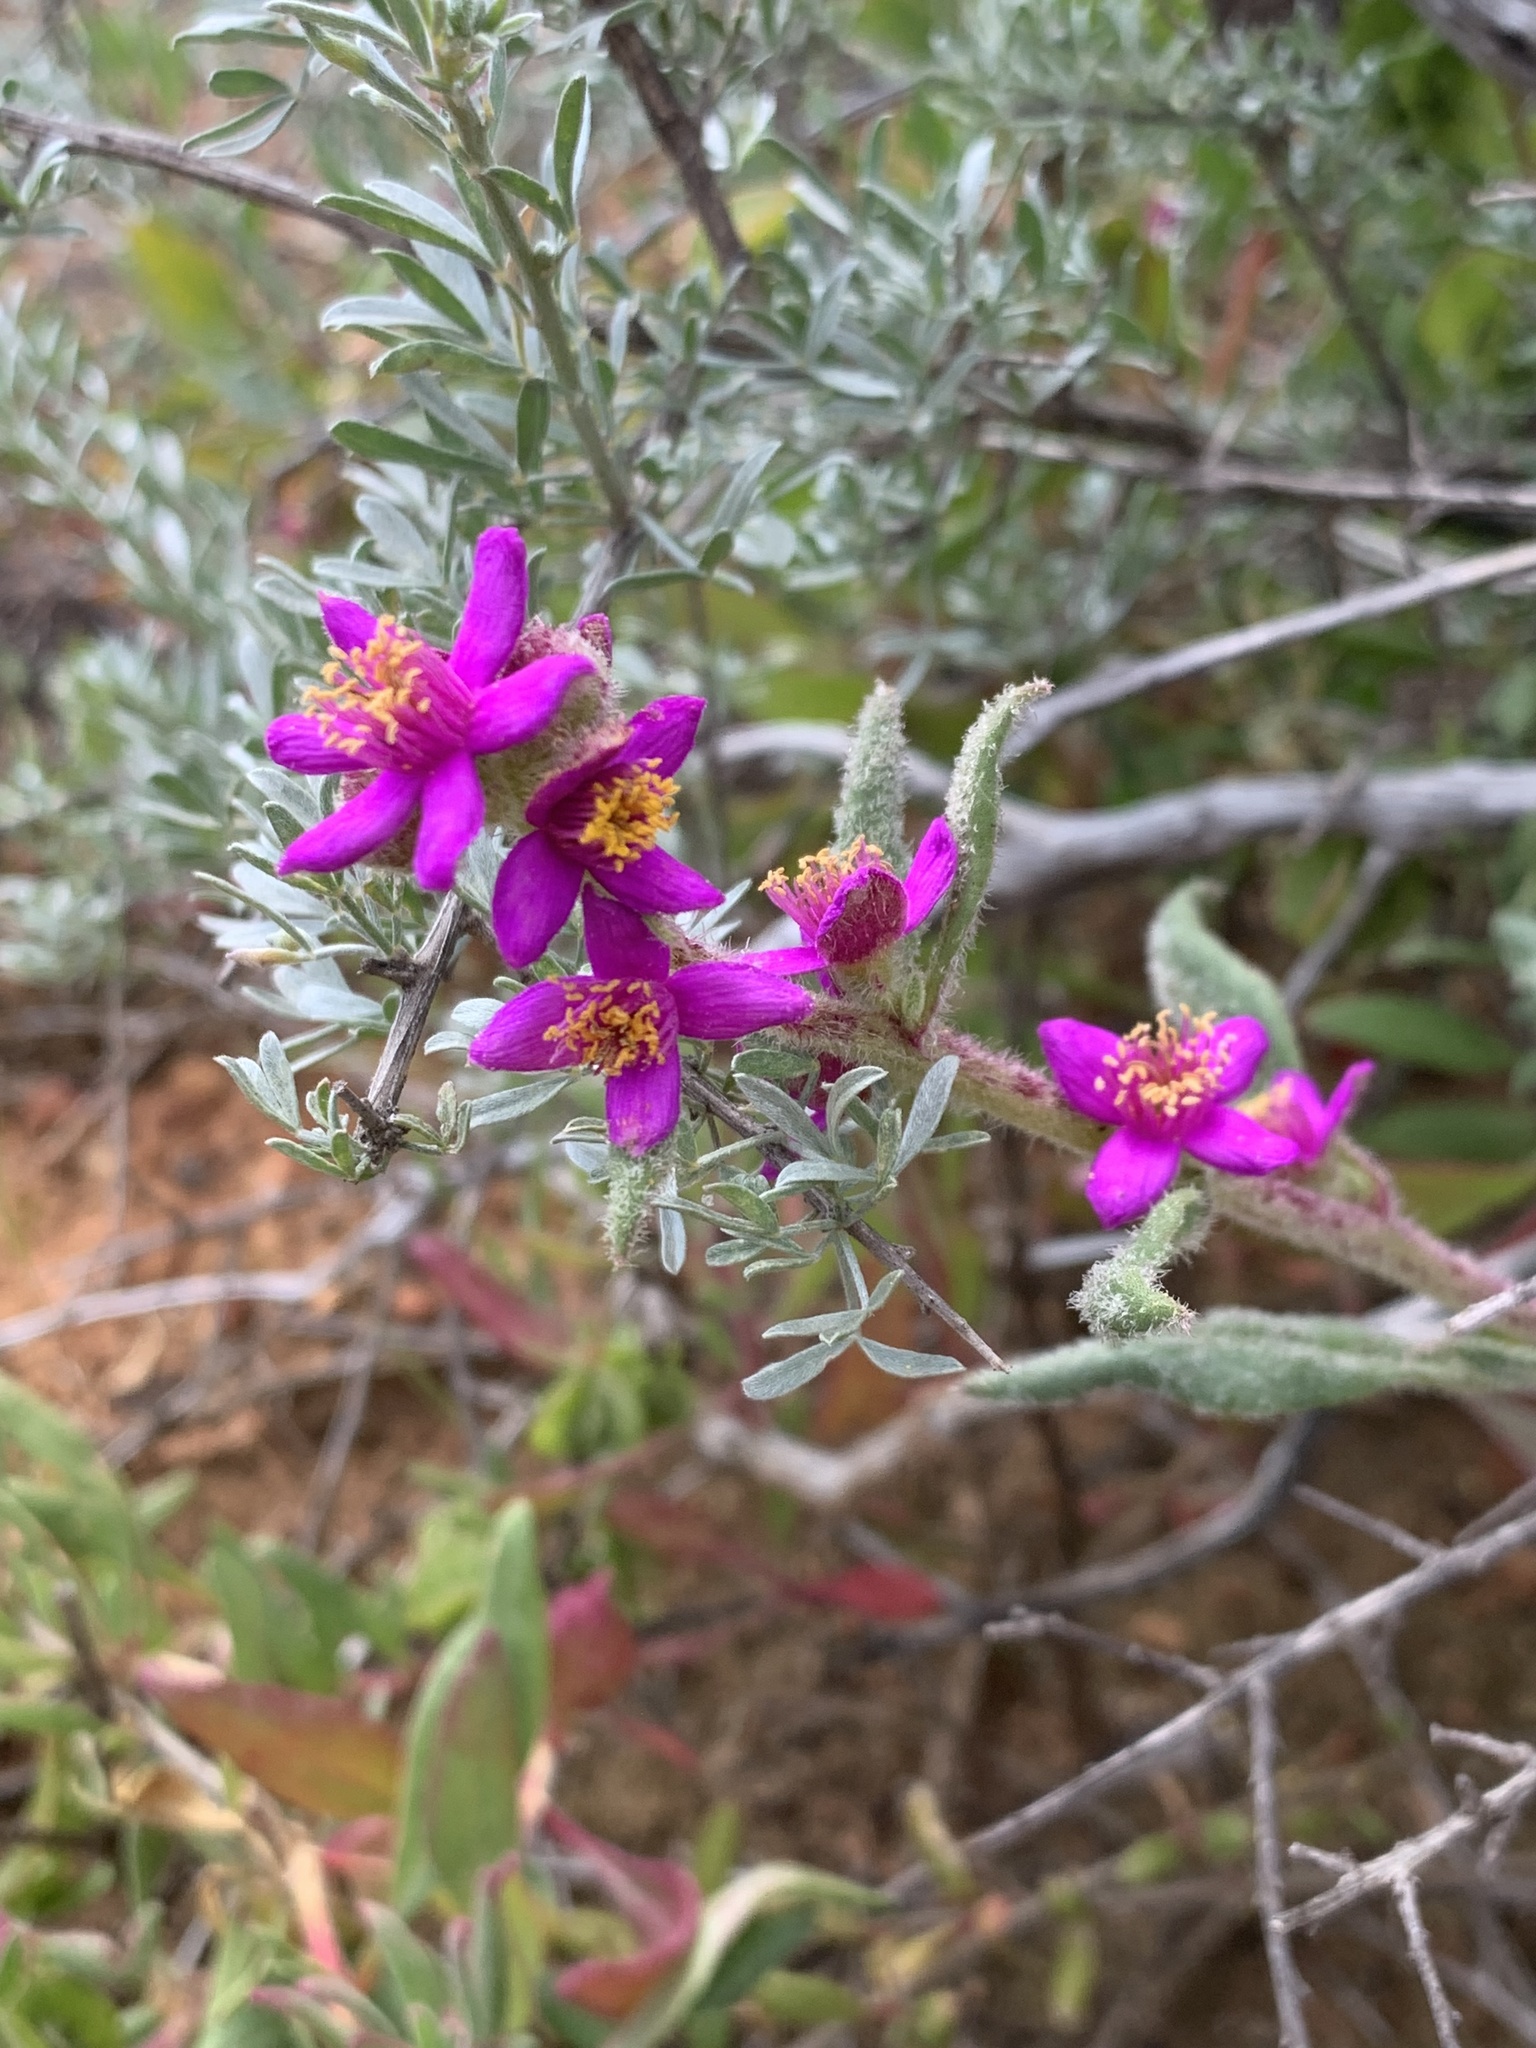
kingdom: Plantae
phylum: Tracheophyta
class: Magnoliopsida
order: Caryophyllales
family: Aizoaceae
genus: Tetragonia
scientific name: Tetragonia rosea
